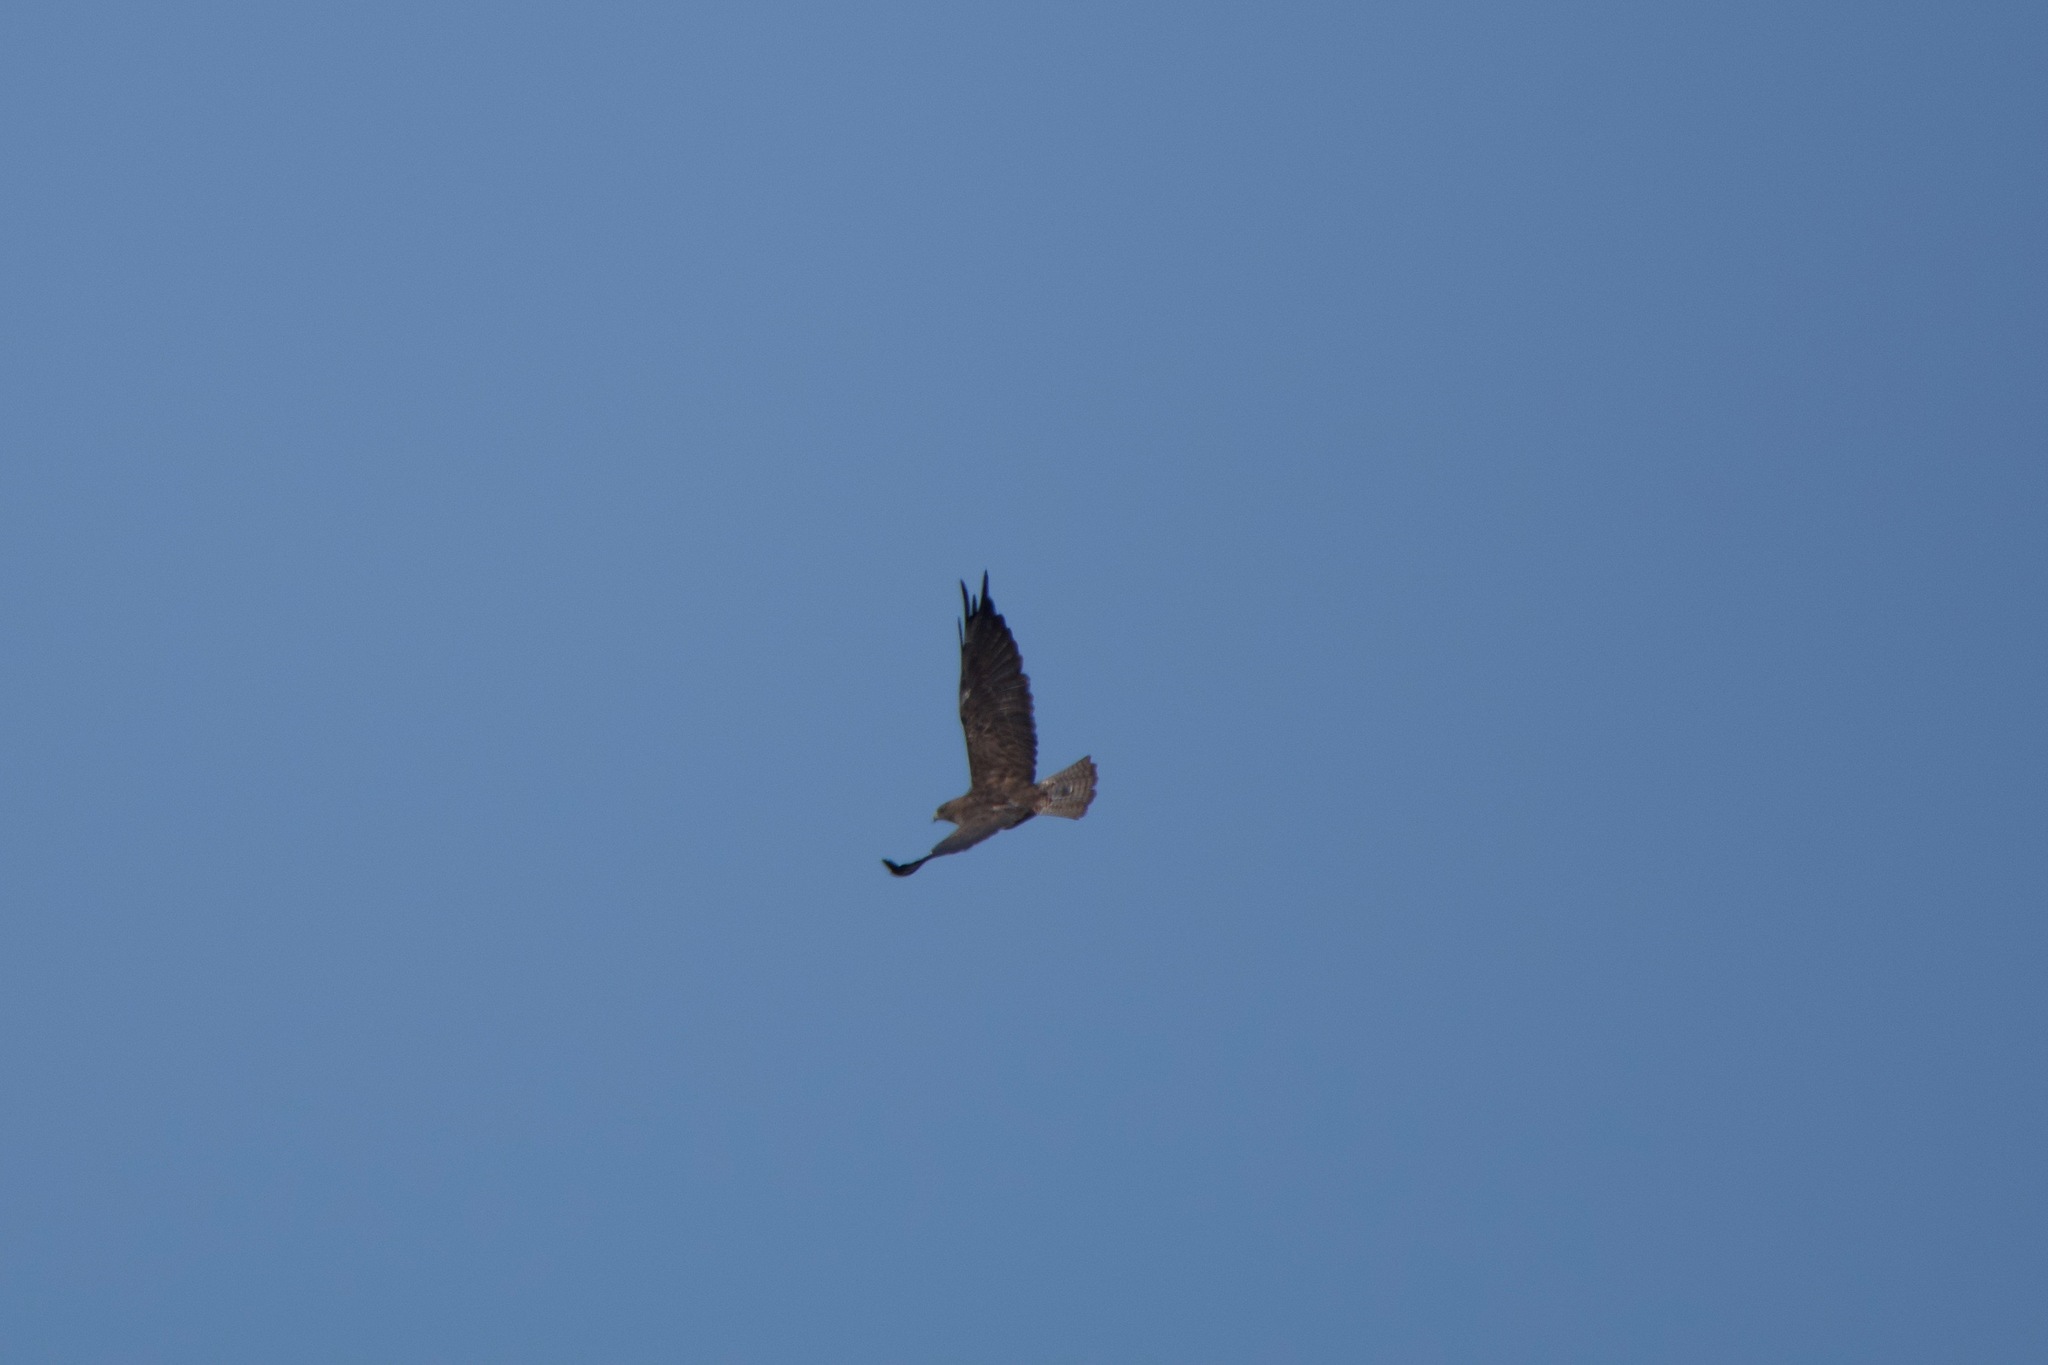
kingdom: Animalia
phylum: Chordata
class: Aves
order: Accipitriformes
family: Accipitridae
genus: Buteo
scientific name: Buteo swainsoni
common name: Swainson's hawk
